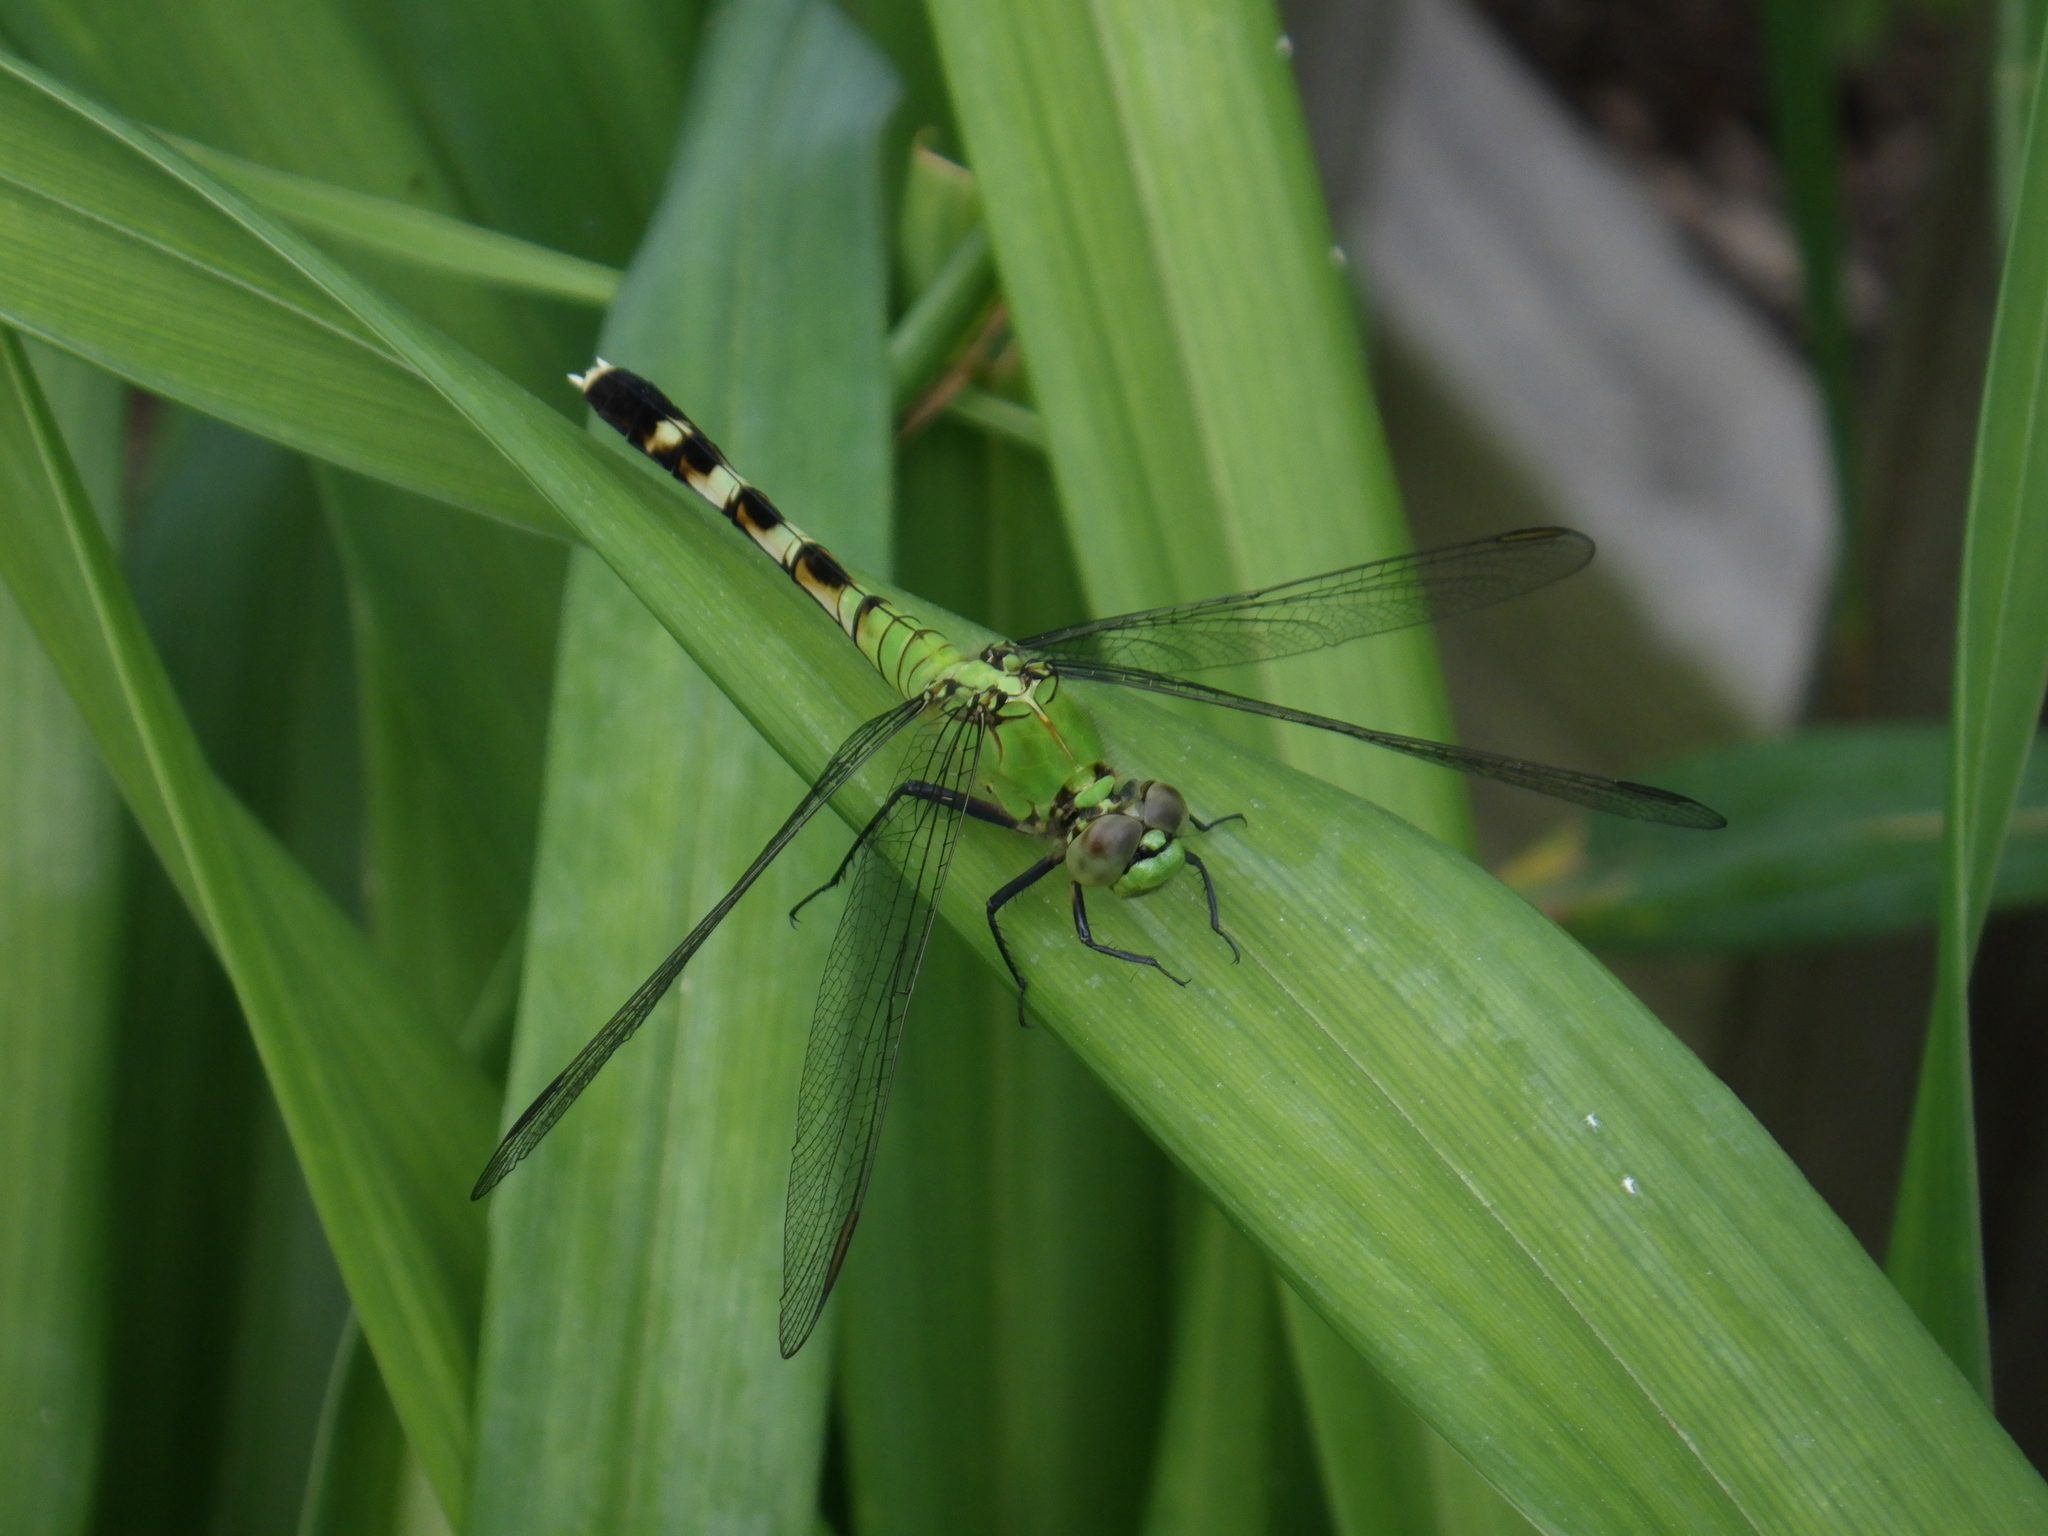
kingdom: Animalia
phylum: Arthropoda
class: Insecta
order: Odonata
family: Libellulidae
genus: Erythemis
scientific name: Erythemis simplicicollis
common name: Eastern pondhawk
